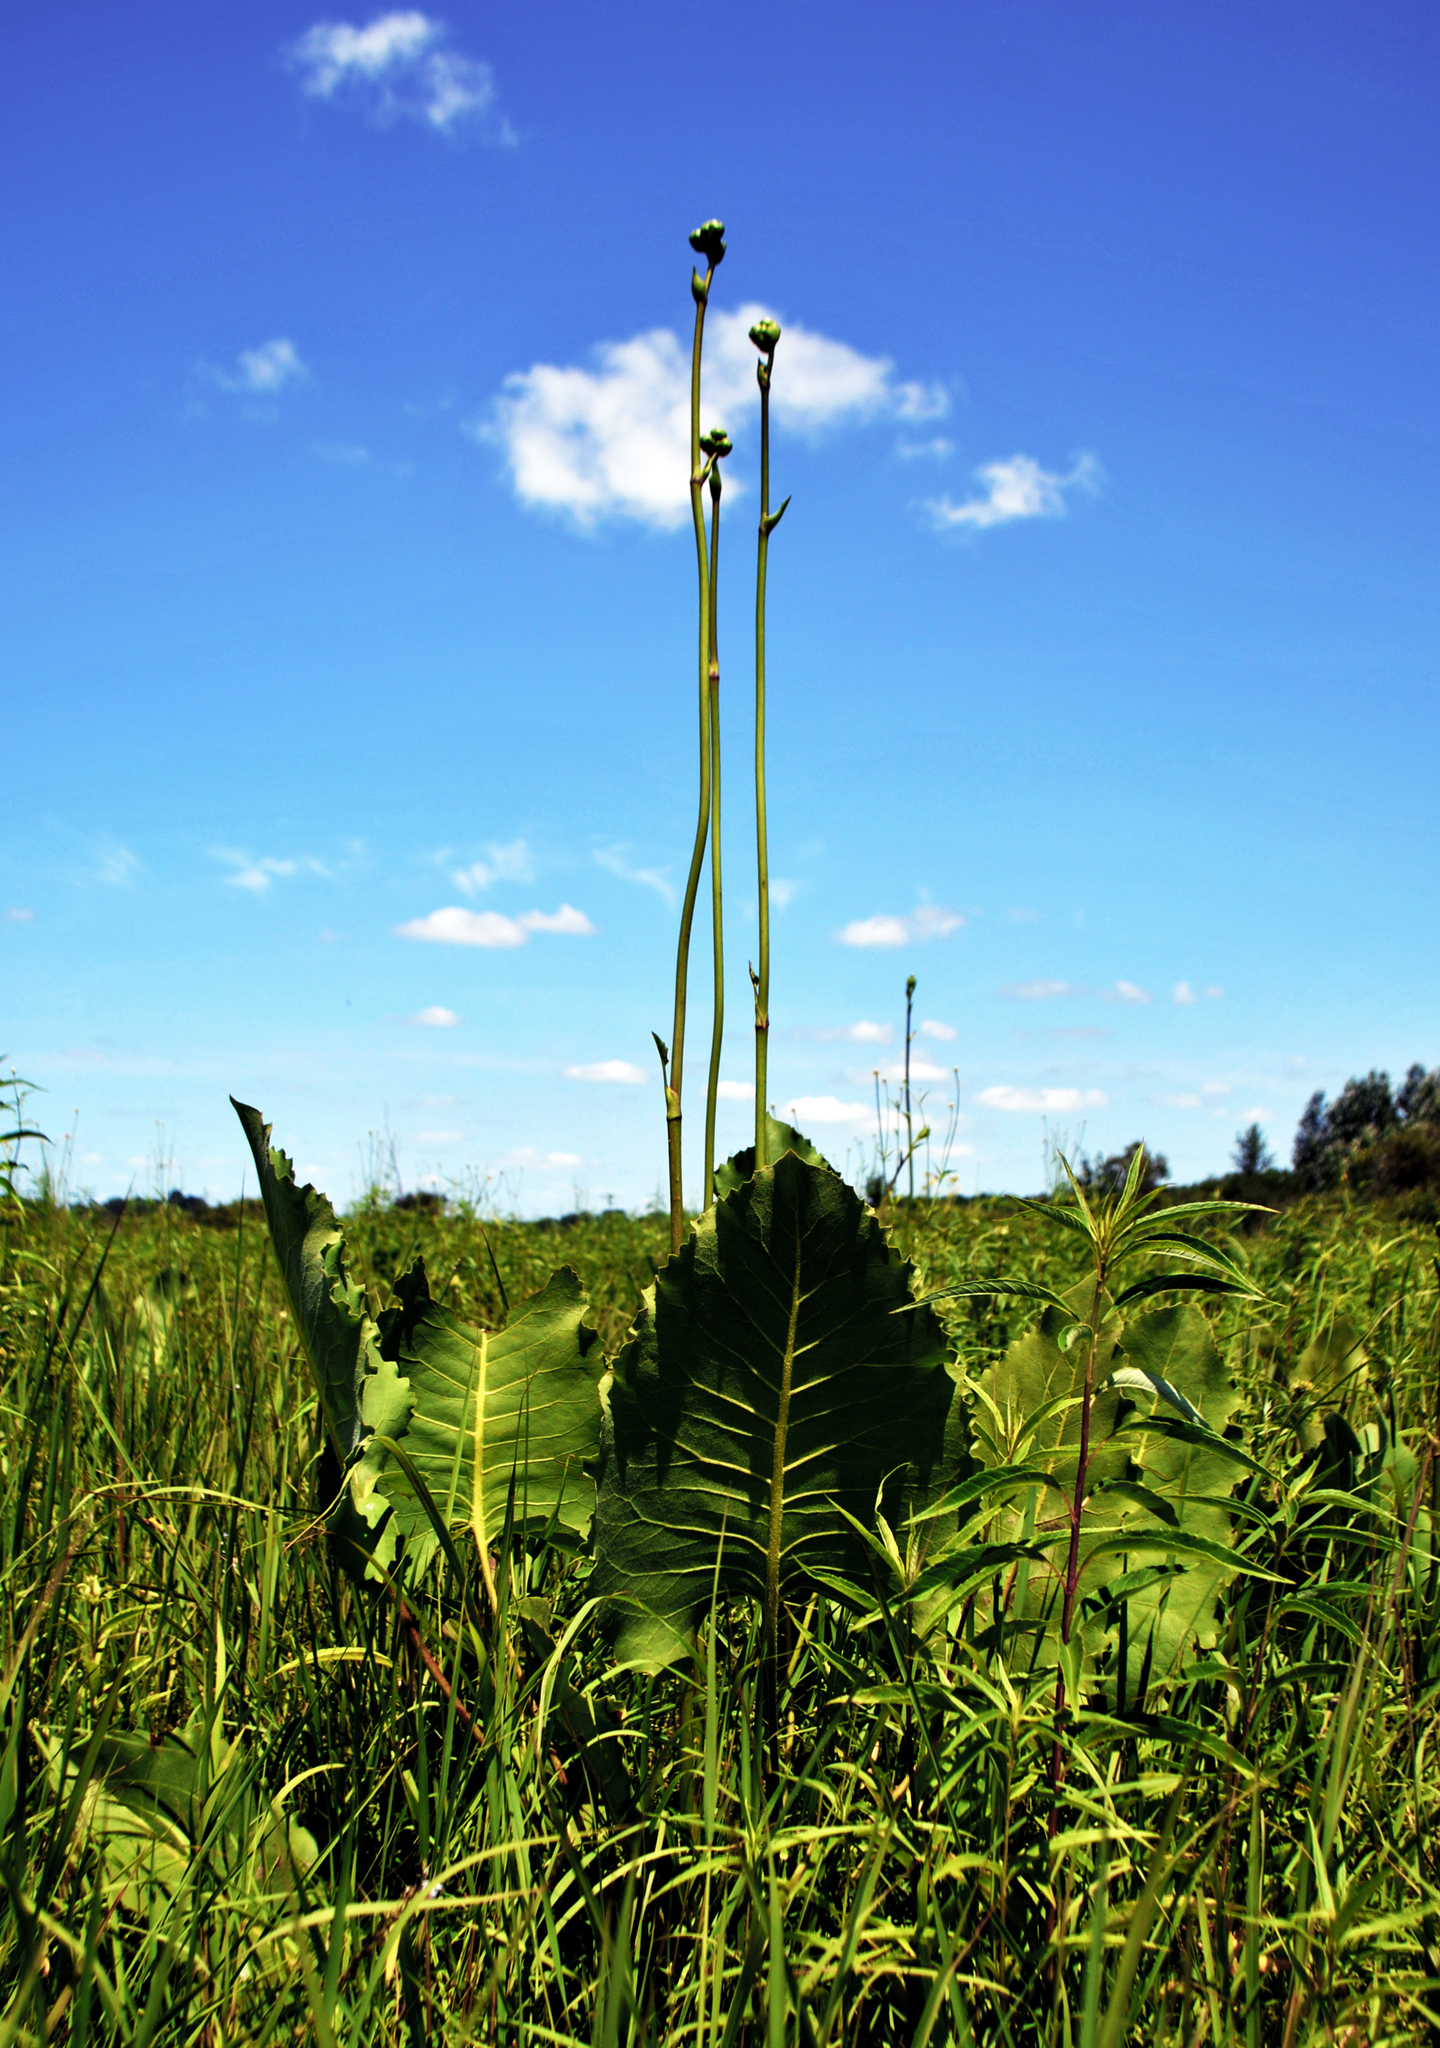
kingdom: Plantae
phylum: Tracheophyta
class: Magnoliopsida
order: Asterales
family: Asteraceae
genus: Silphium
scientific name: Silphium terebinthinaceum
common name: Basal-leaf rosinweed
